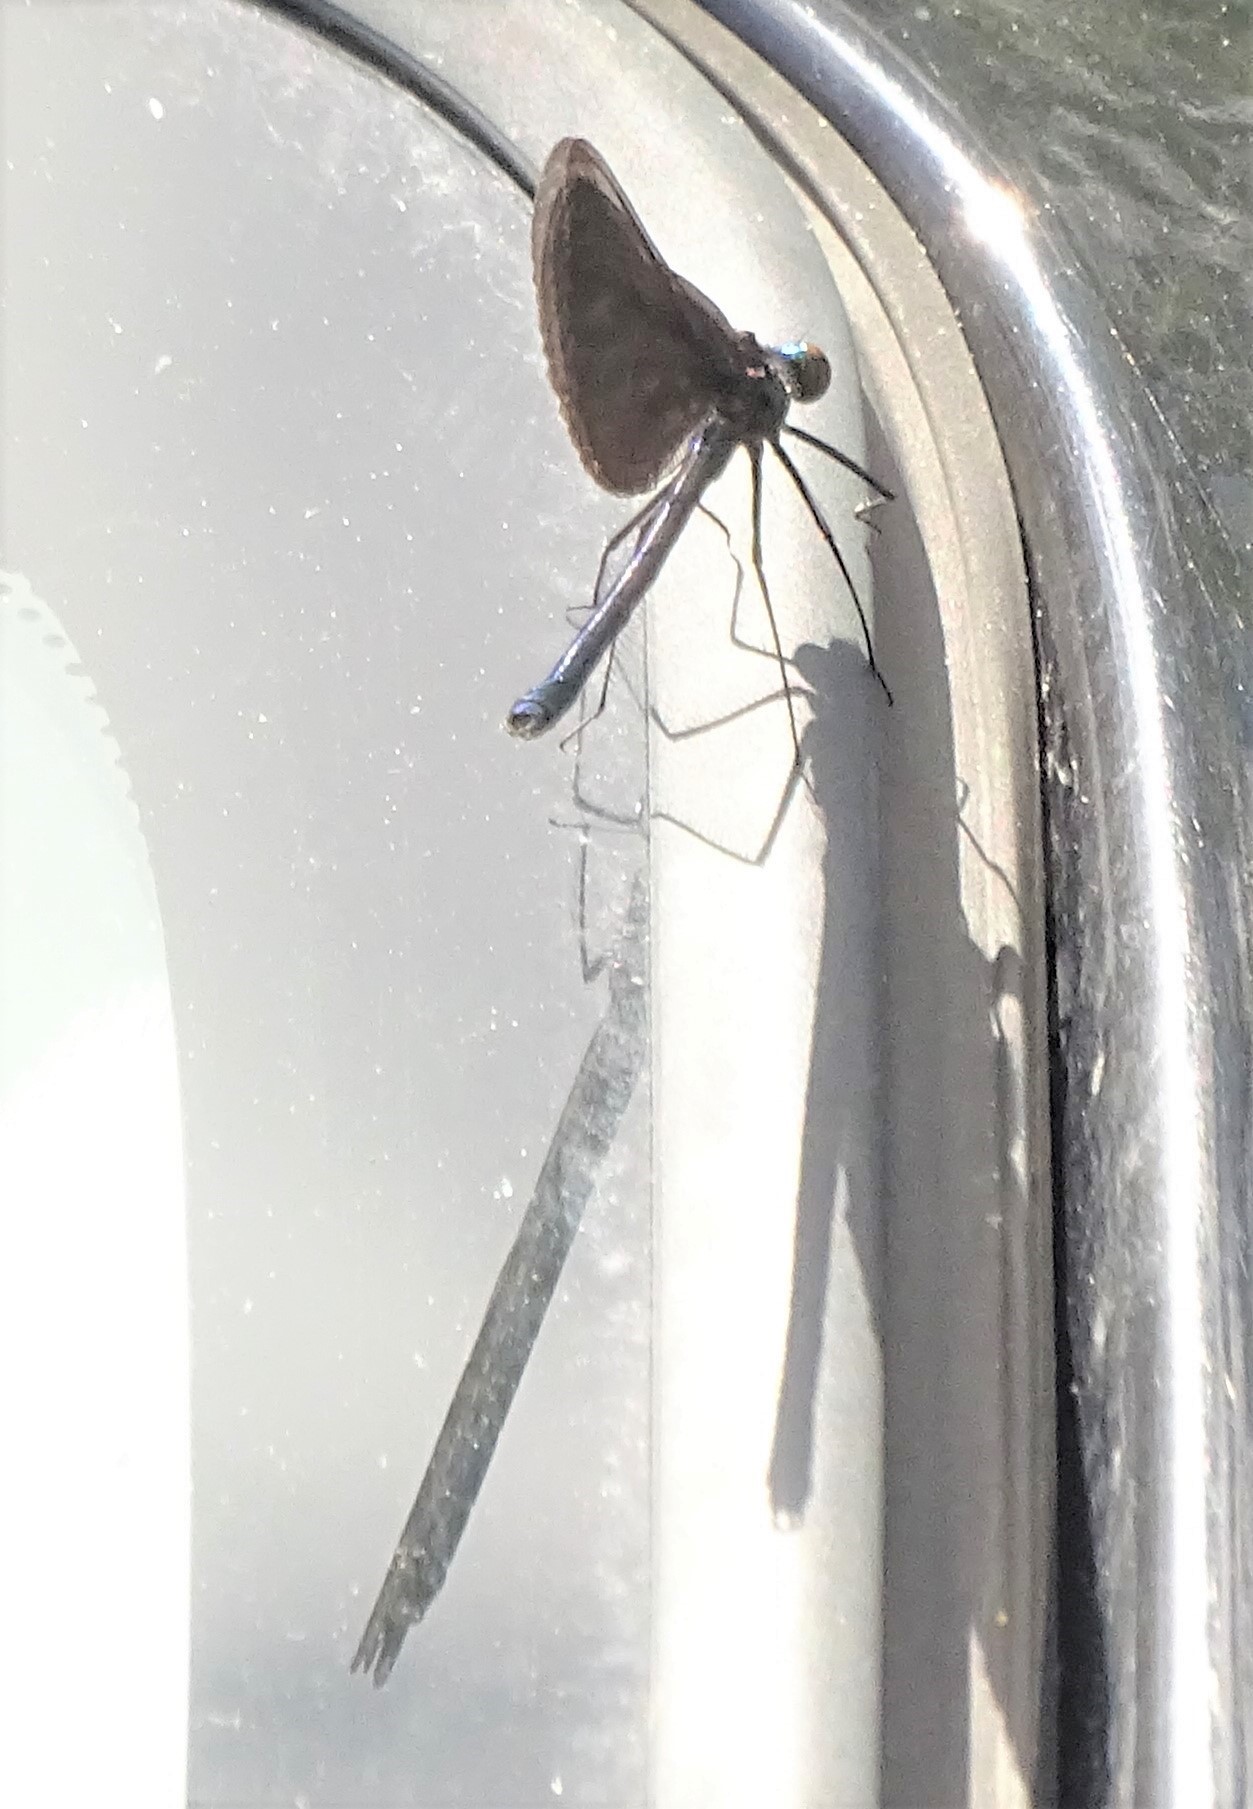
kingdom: Animalia
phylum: Arthropoda
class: Insecta
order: Odonata
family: Calopterygidae
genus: Calopteryx
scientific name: Calopteryx maculata
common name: Ebony jewelwing
